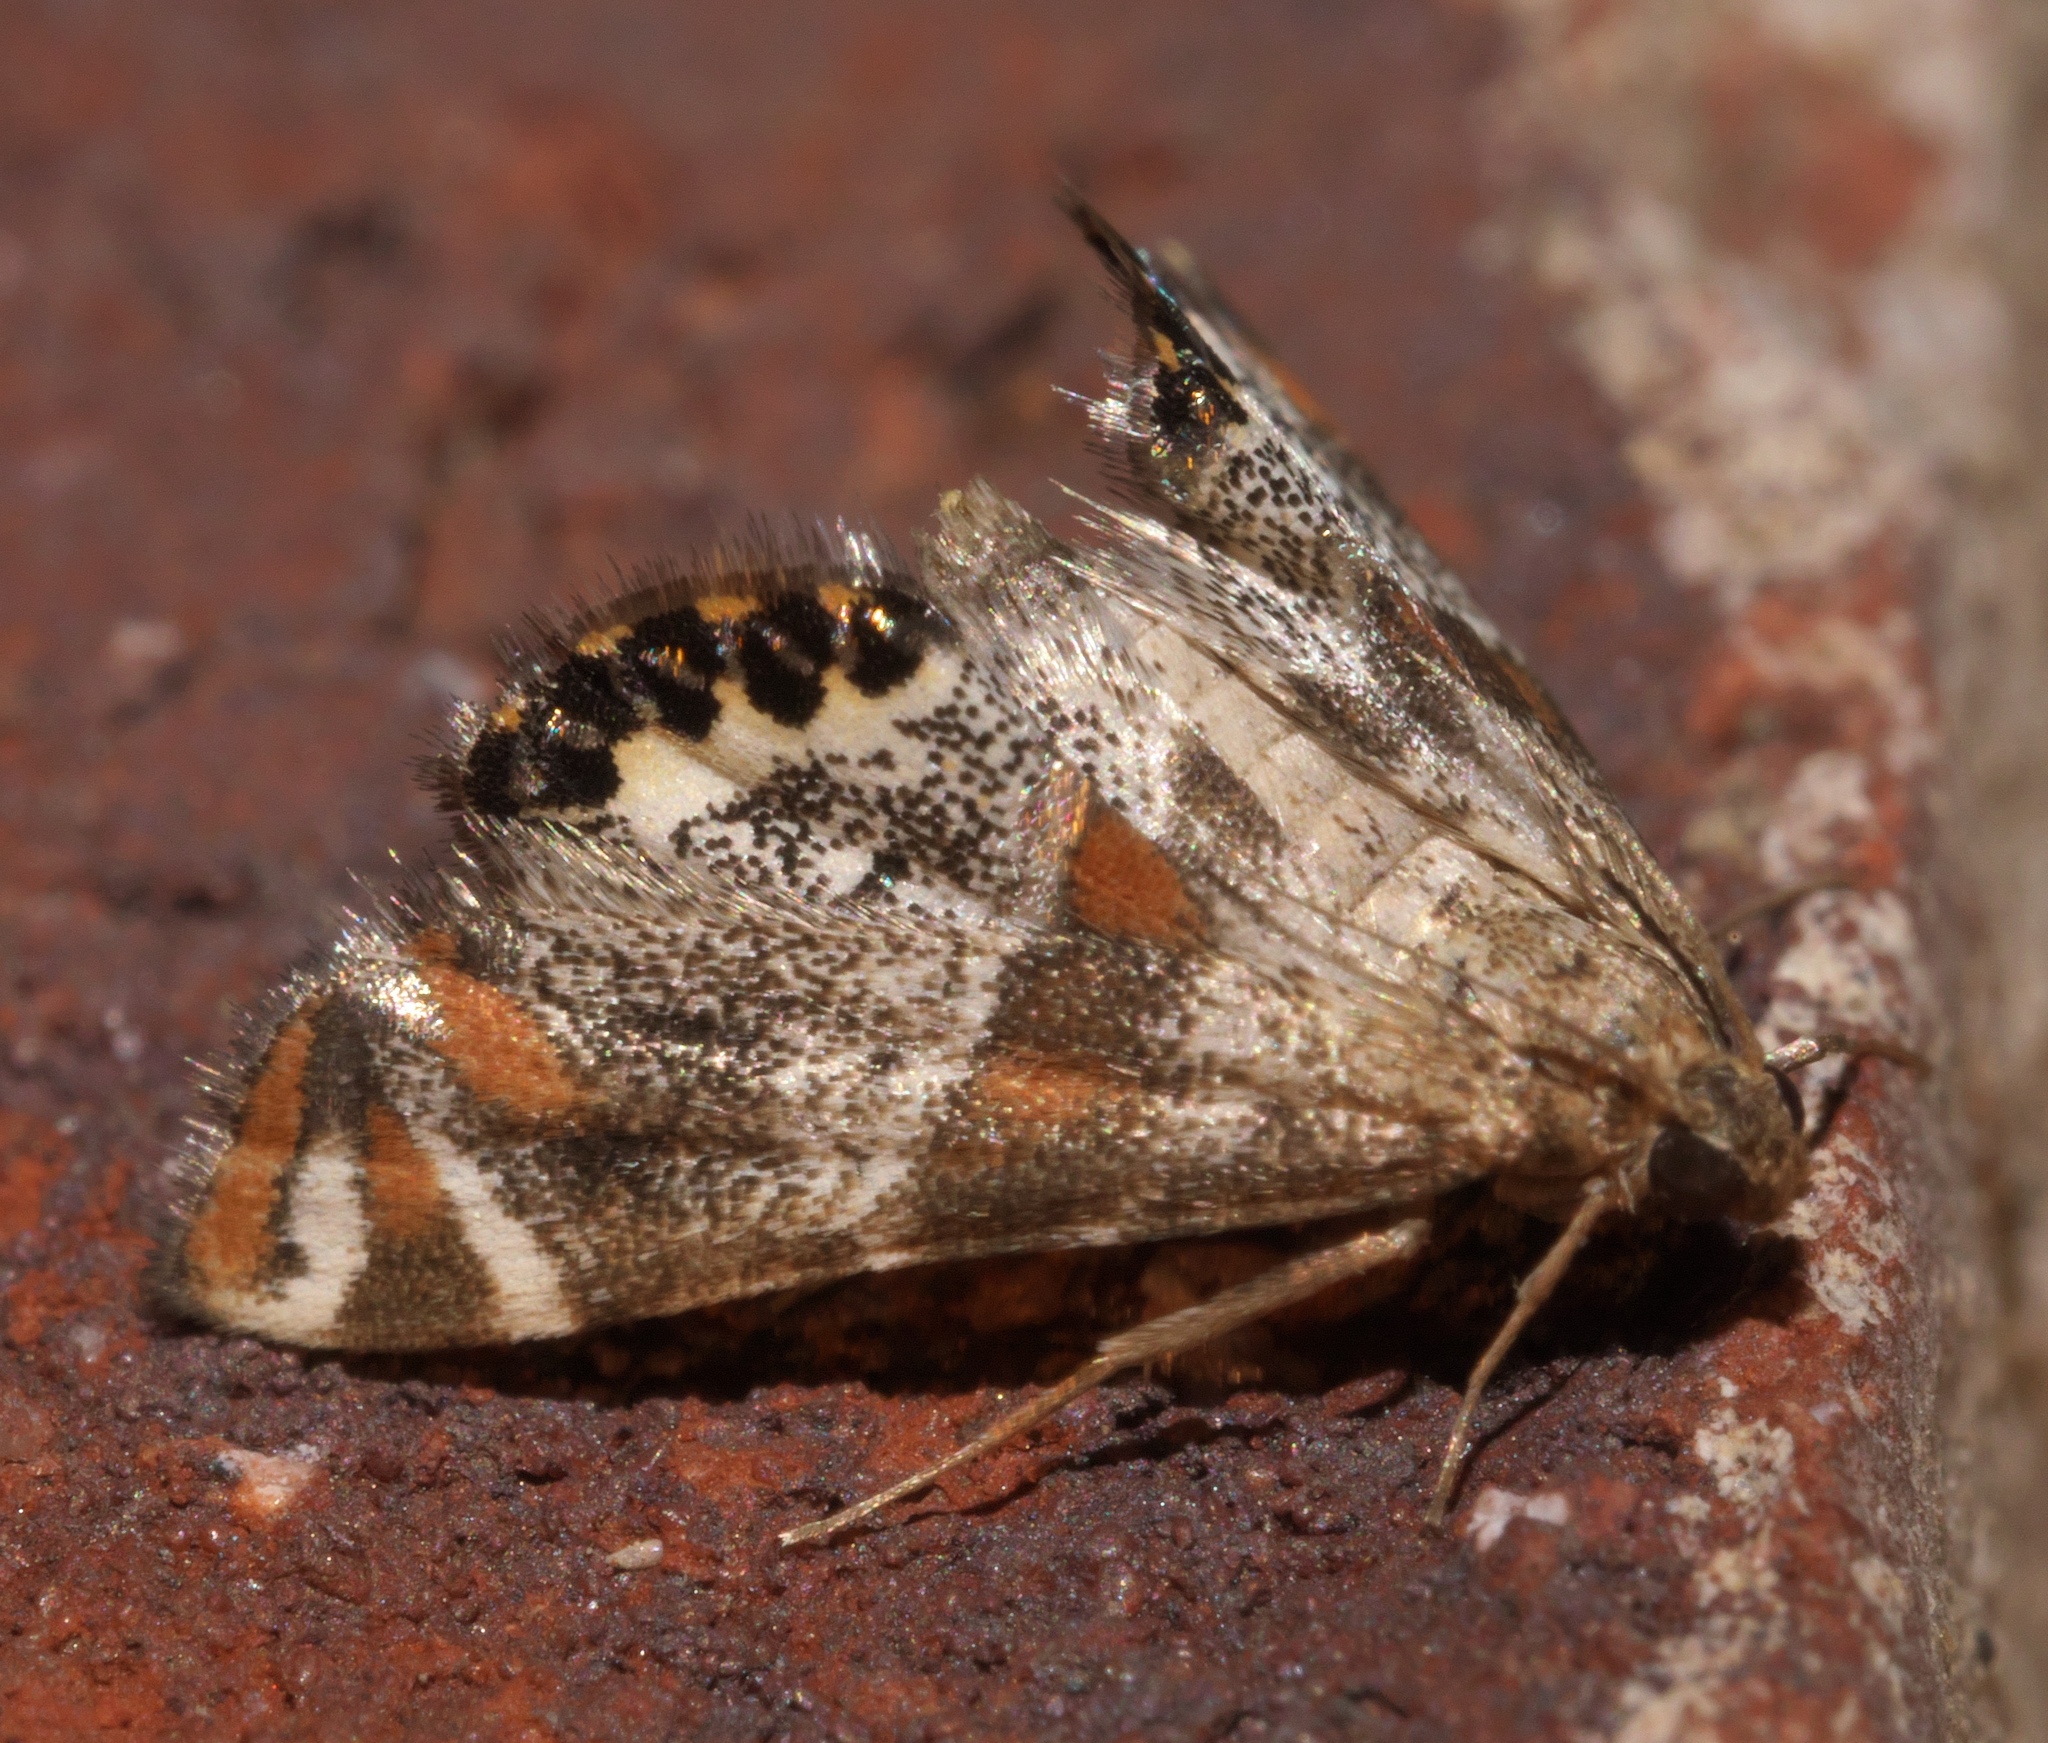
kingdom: Animalia
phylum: Arthropoda
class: Insecta
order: Lepidoptera
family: Crambidae
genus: Petrophila
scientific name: Petrophila jaliscalis
